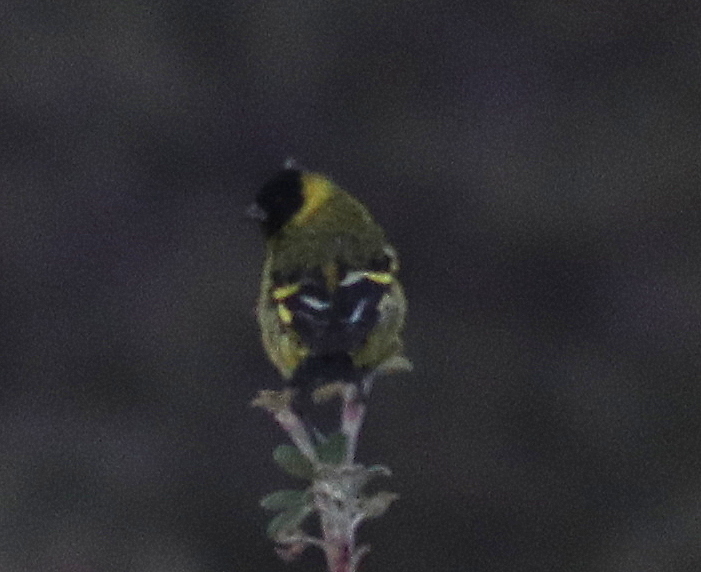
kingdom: Animalia
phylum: Chordata
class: Aves
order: Passeriformes
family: Fringillidae
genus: Spinus
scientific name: Spinus magellanicus
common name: Hooded siskin
